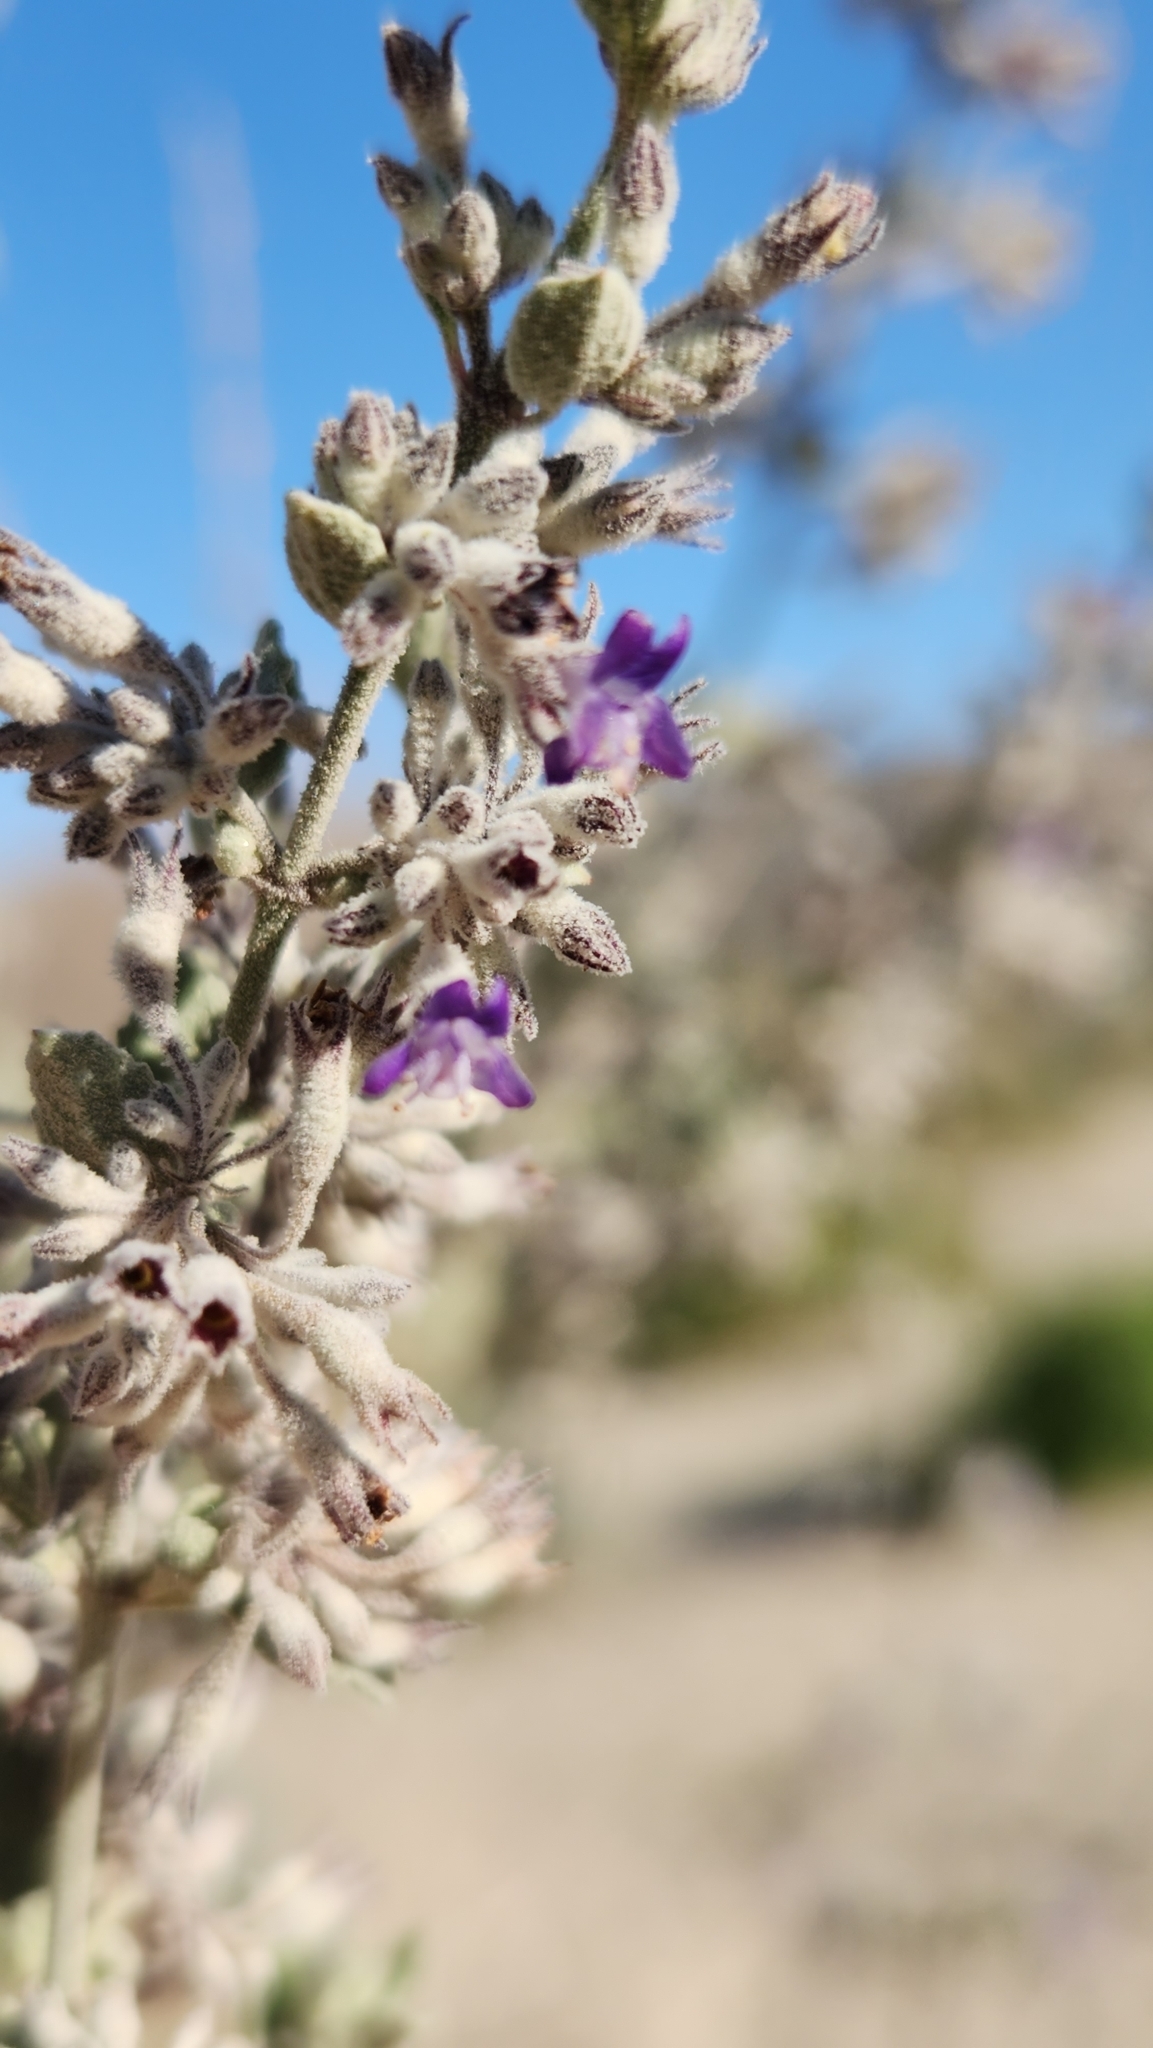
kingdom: Plantae
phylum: Tracheophyta
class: Magnoliopsida
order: Lamiales
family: Lamiaceae
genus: Condea
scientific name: Condea emoryi
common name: Chia
